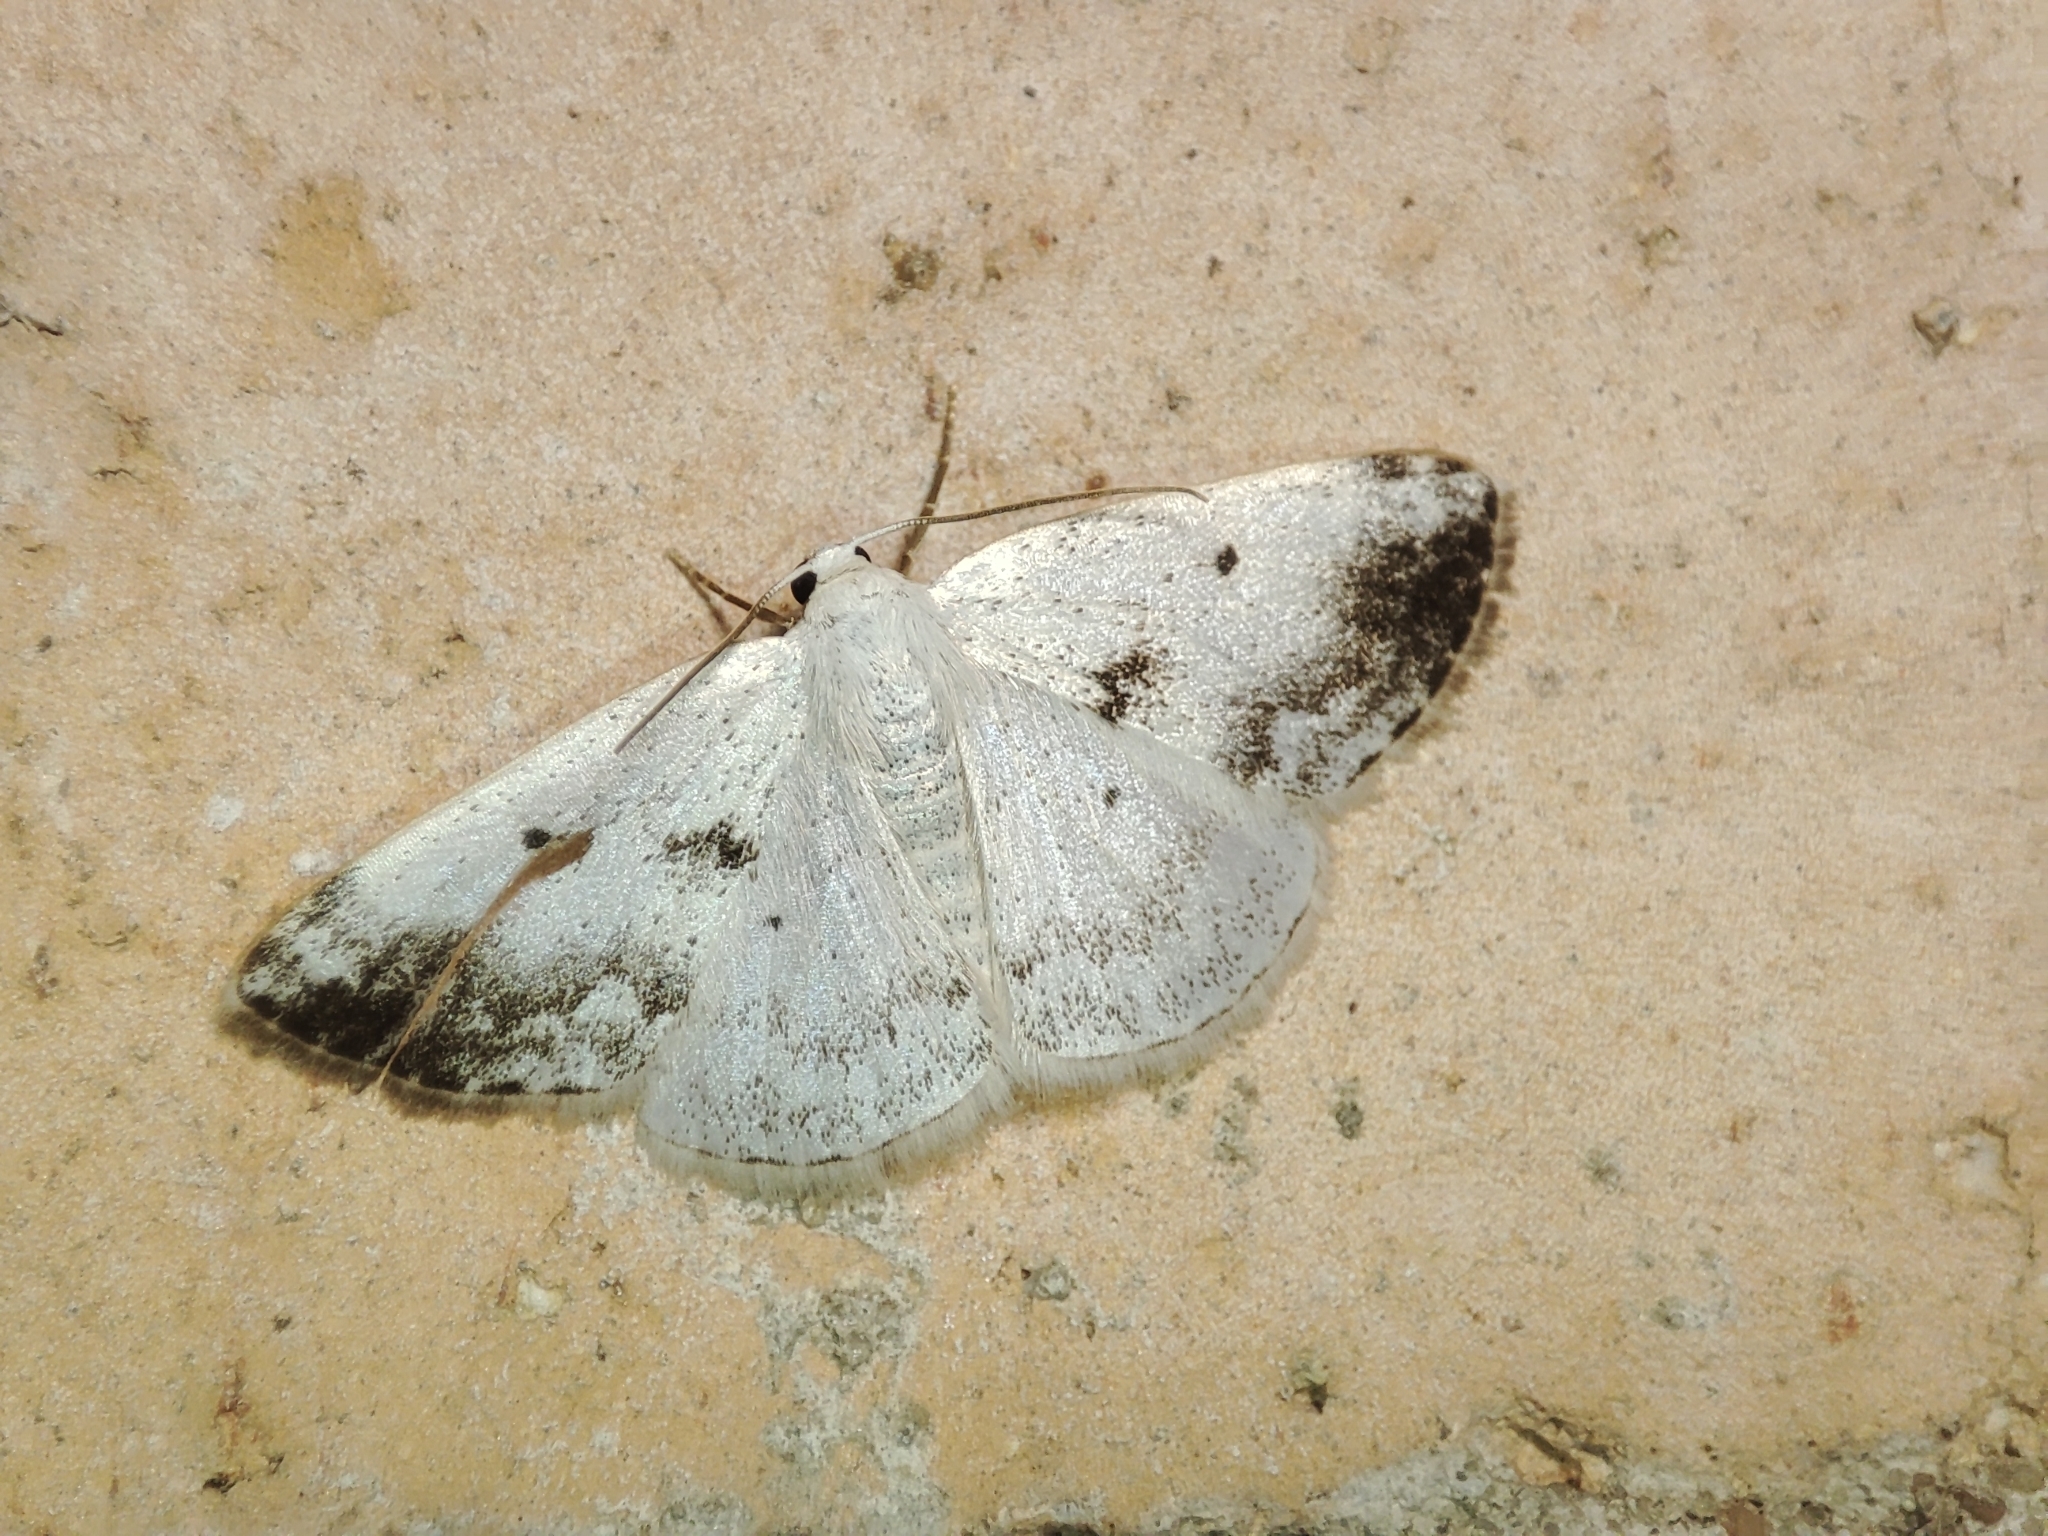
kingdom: Animalia
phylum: Arthropoda
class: Insecta
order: Lepidoptera
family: Geometridae
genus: Lomographa
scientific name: Lomographa temerata
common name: Clouded silver
